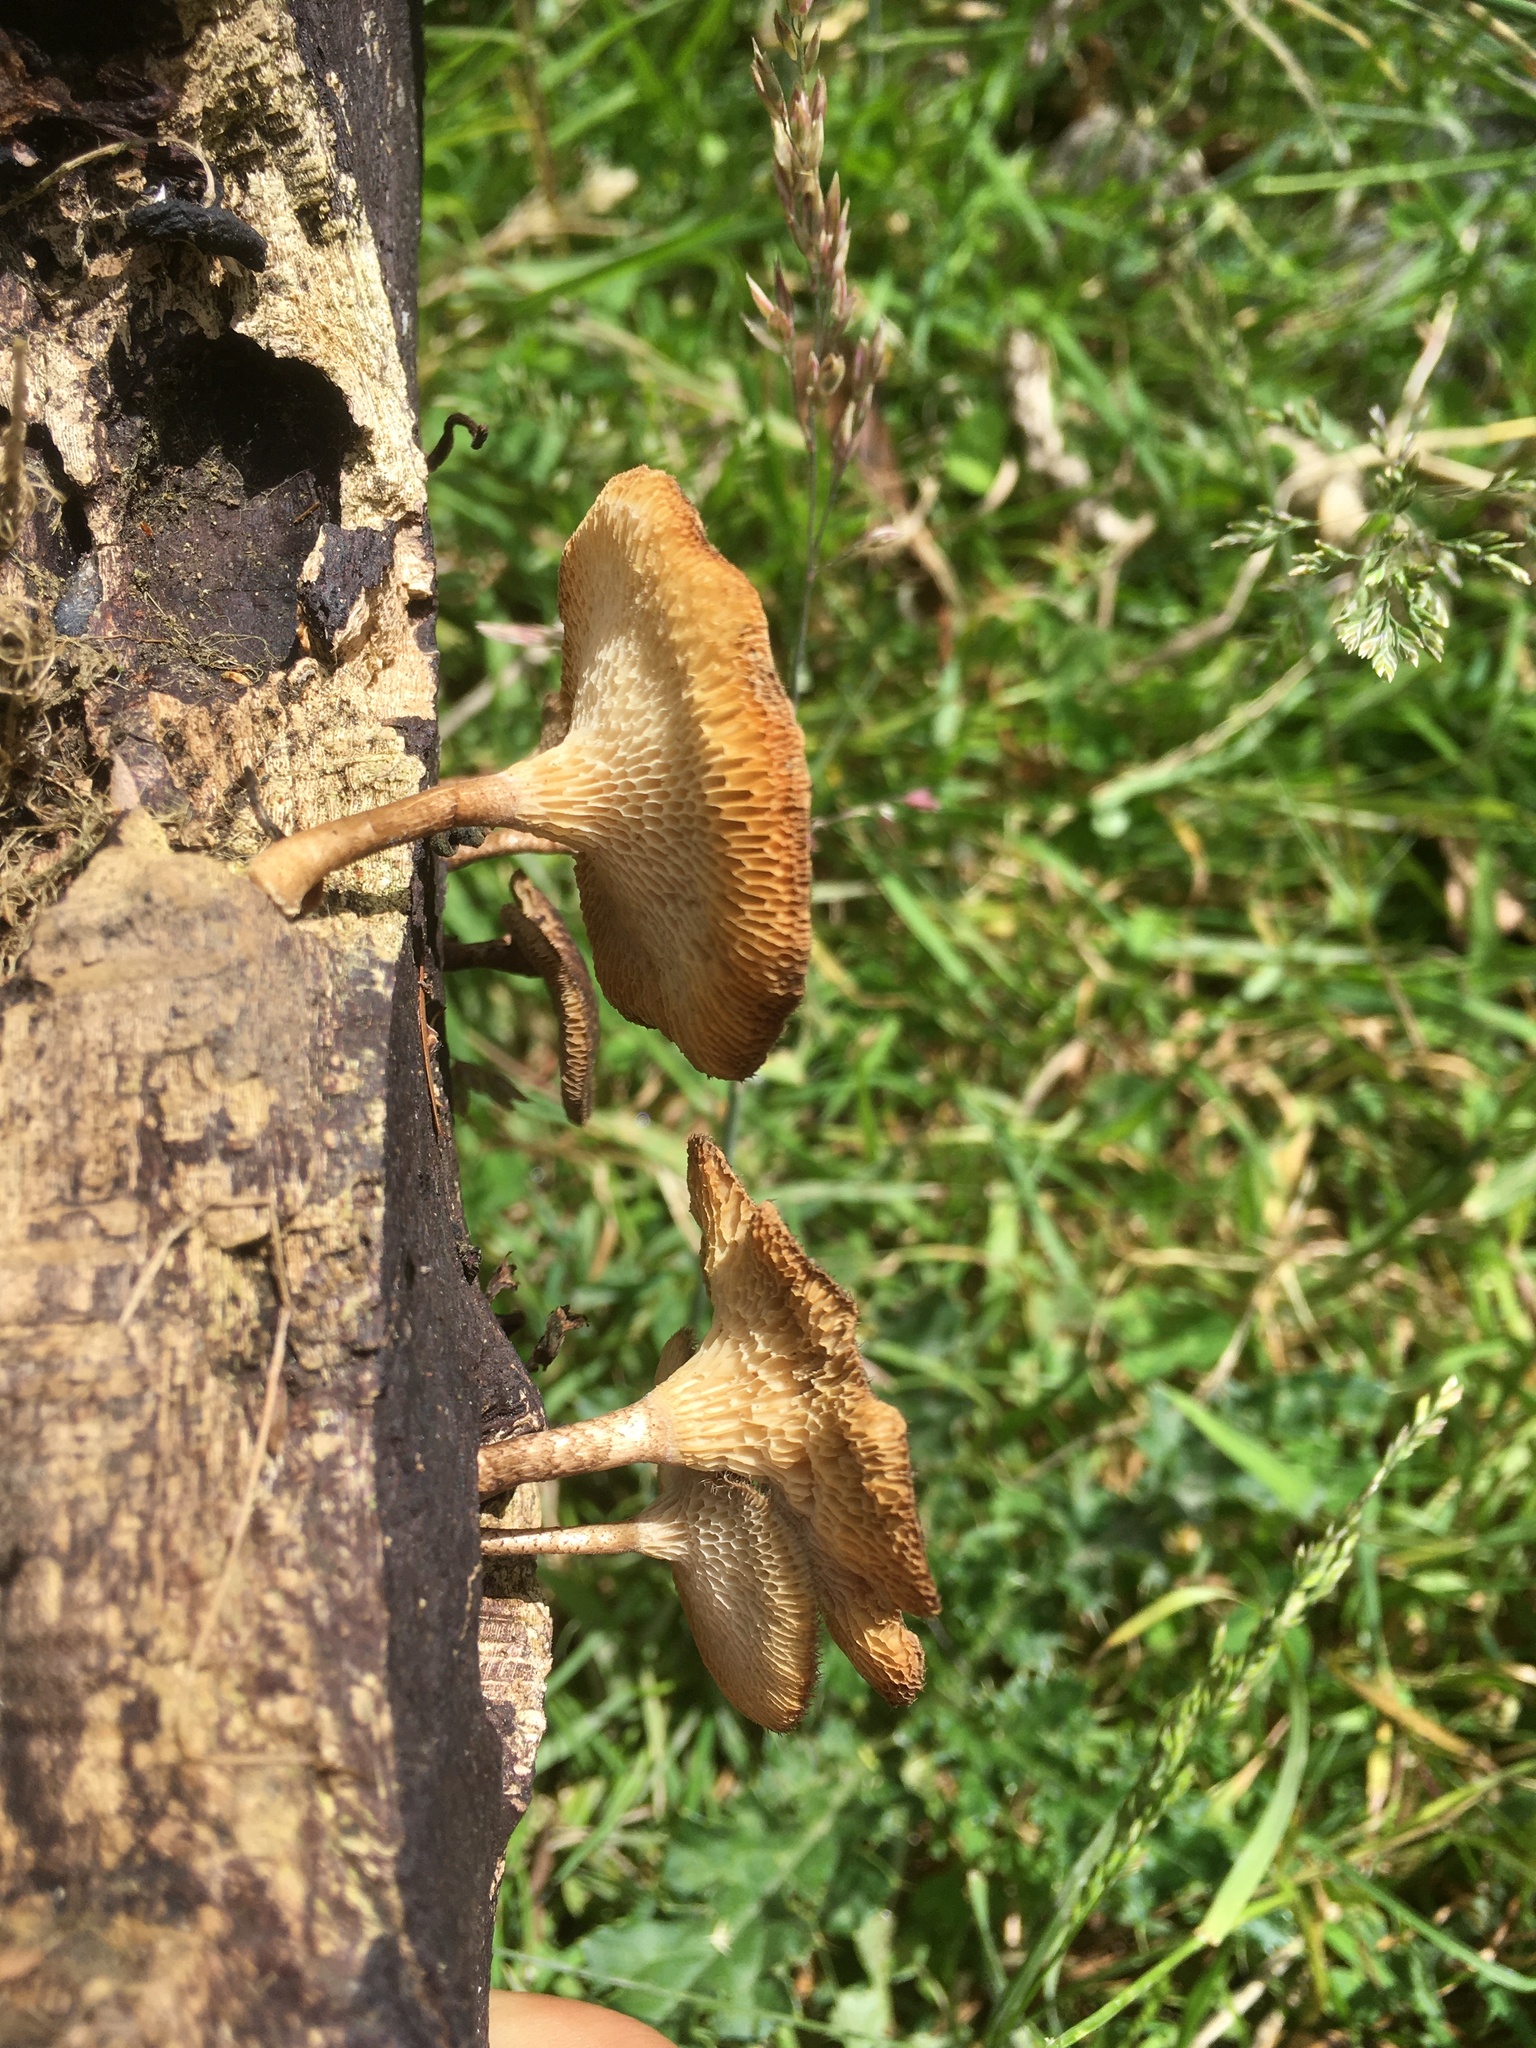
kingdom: Fungi
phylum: Basidiomycota
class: Agaricomycetes
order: Polyporales
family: Polyporaceae
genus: Lentinus
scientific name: Lentinus arcularius
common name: Spring polypore
